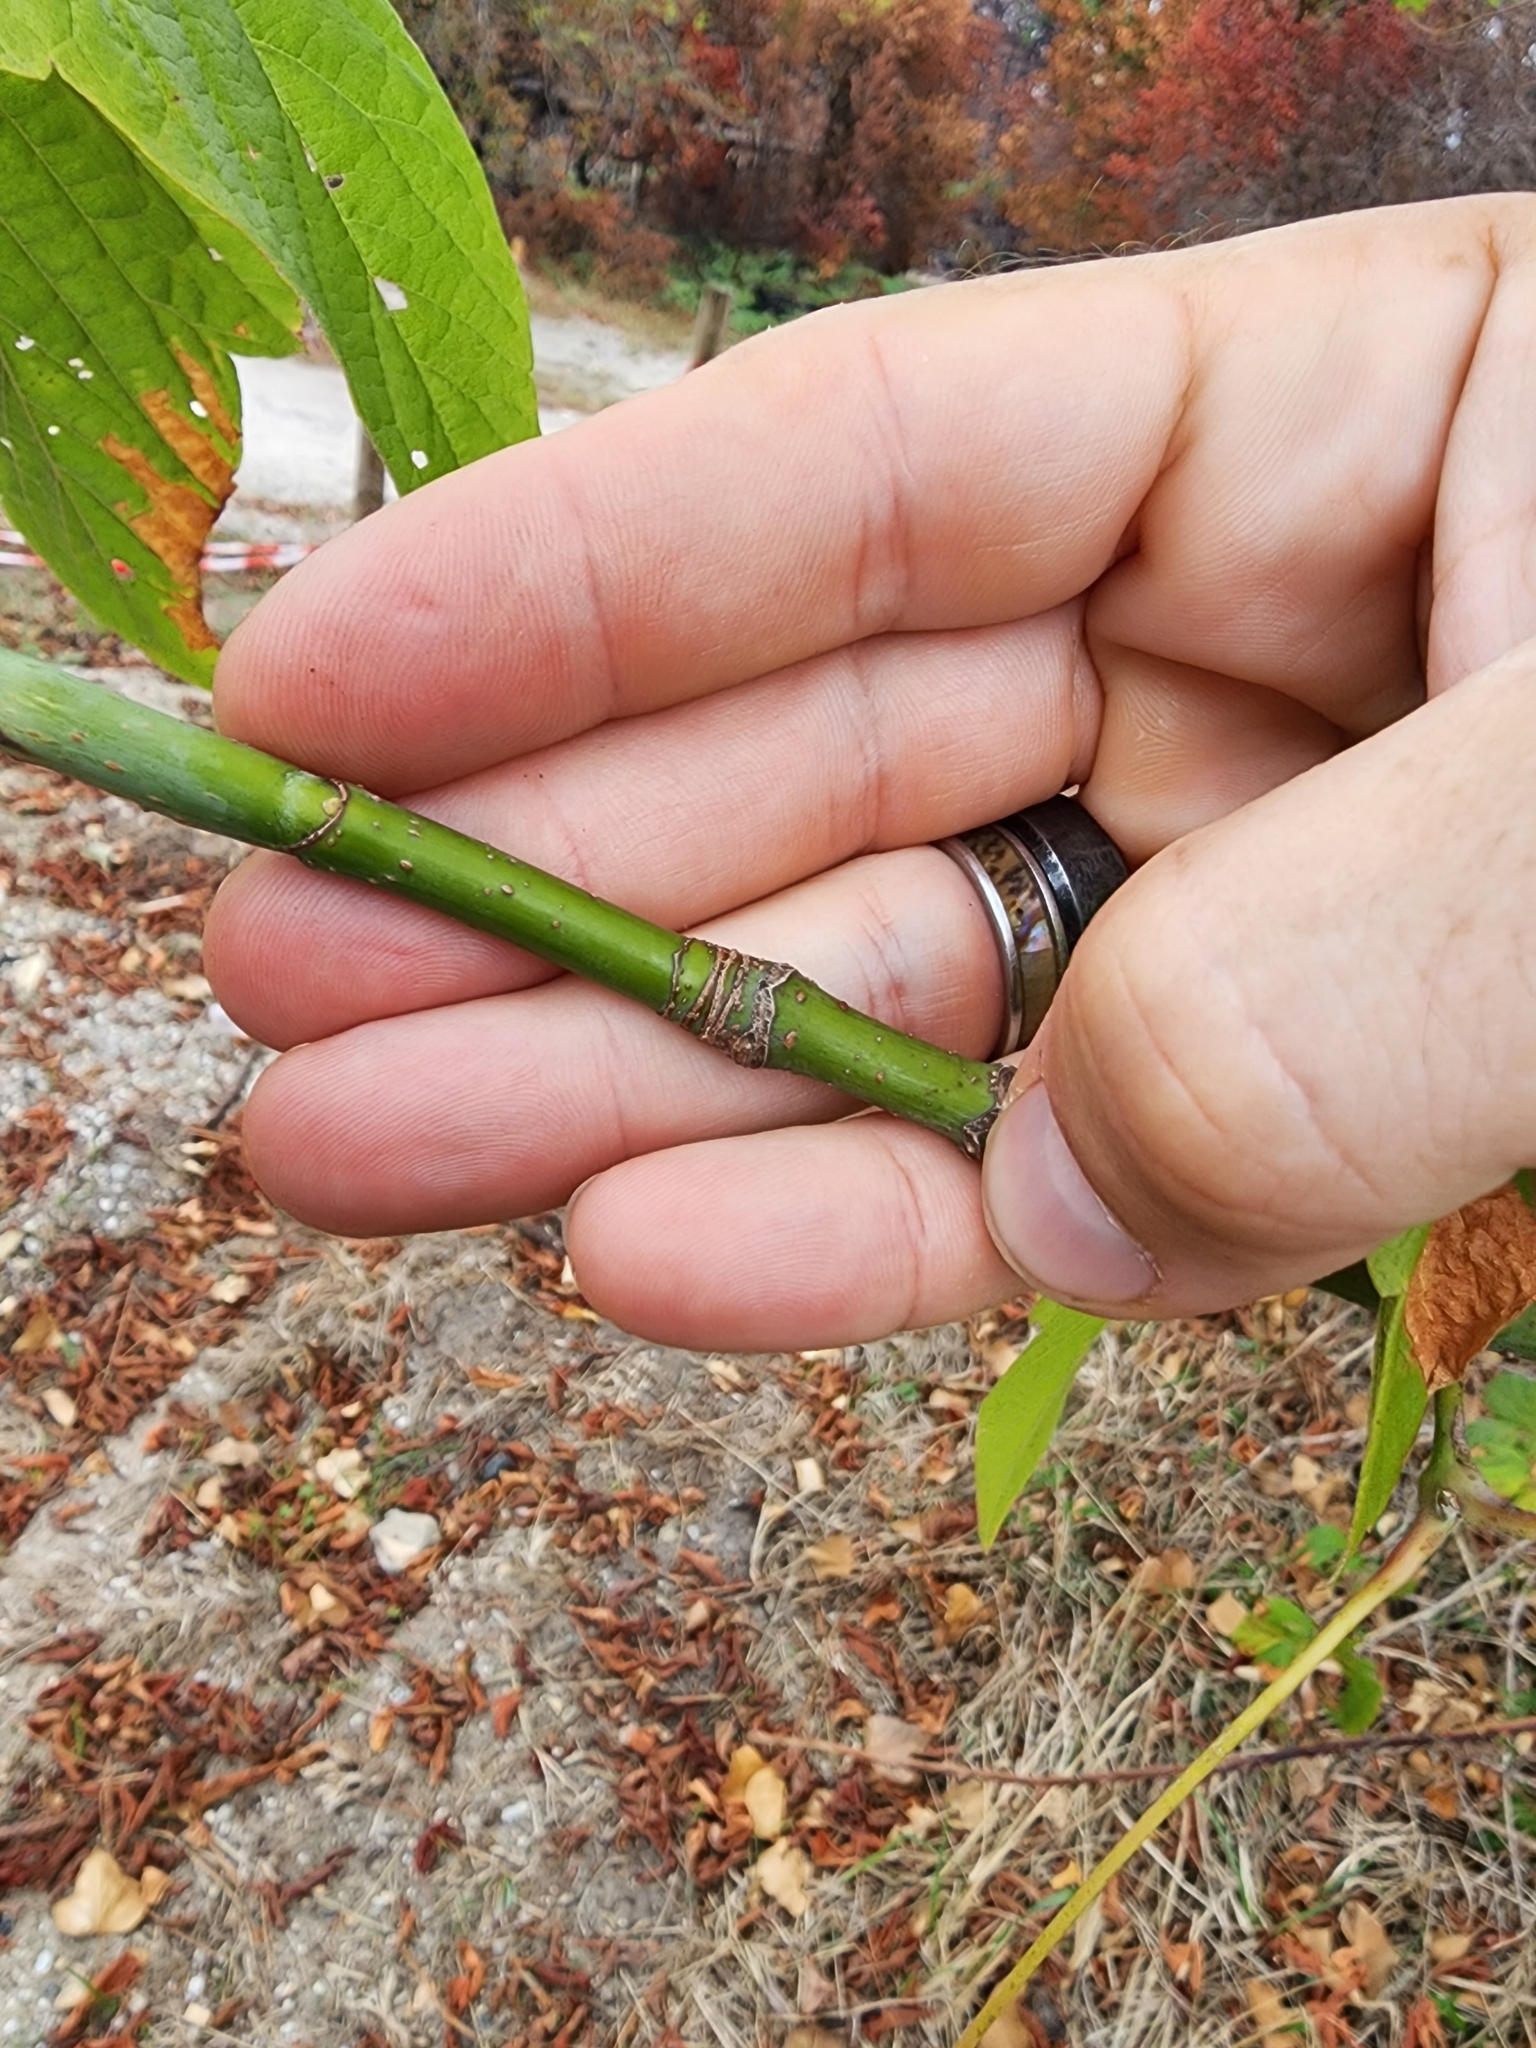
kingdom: Plantae
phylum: Tracheophyta
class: Magnoliopsida
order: Sapindales
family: Sapindaceae
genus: Acer
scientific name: Acer negundo
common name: Ashleaf maple
